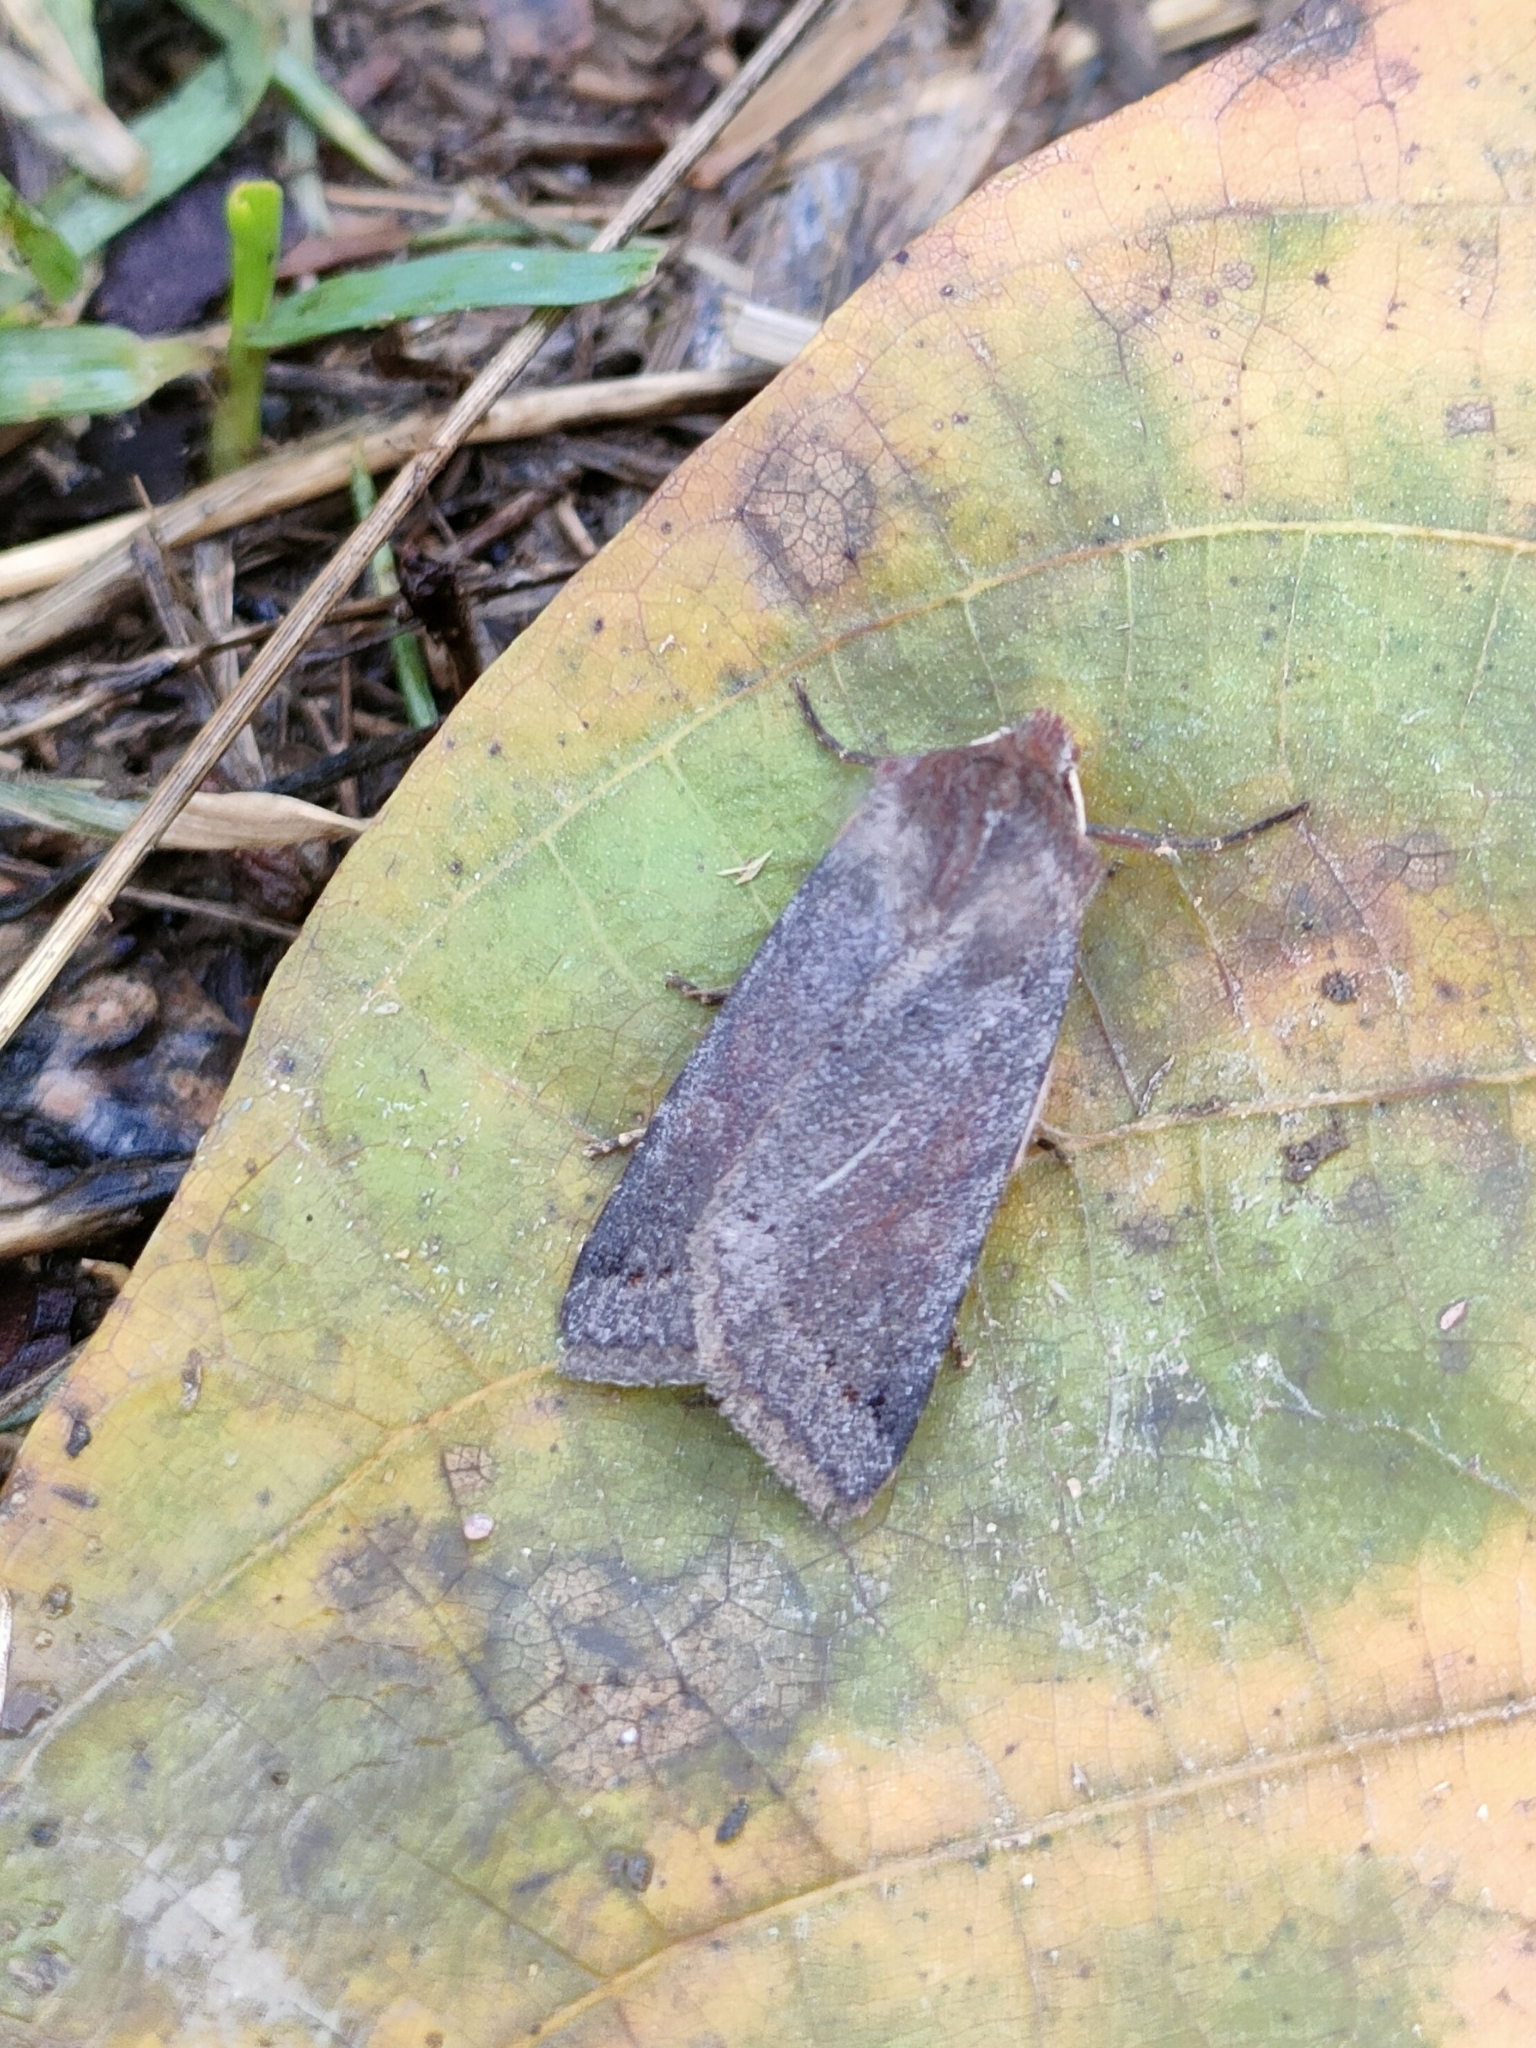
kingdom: Animalia
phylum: Arthropoda
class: Insecta
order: Lepidoptera
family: Noctuidae
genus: Agrochola
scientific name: Agrochola haematidea
